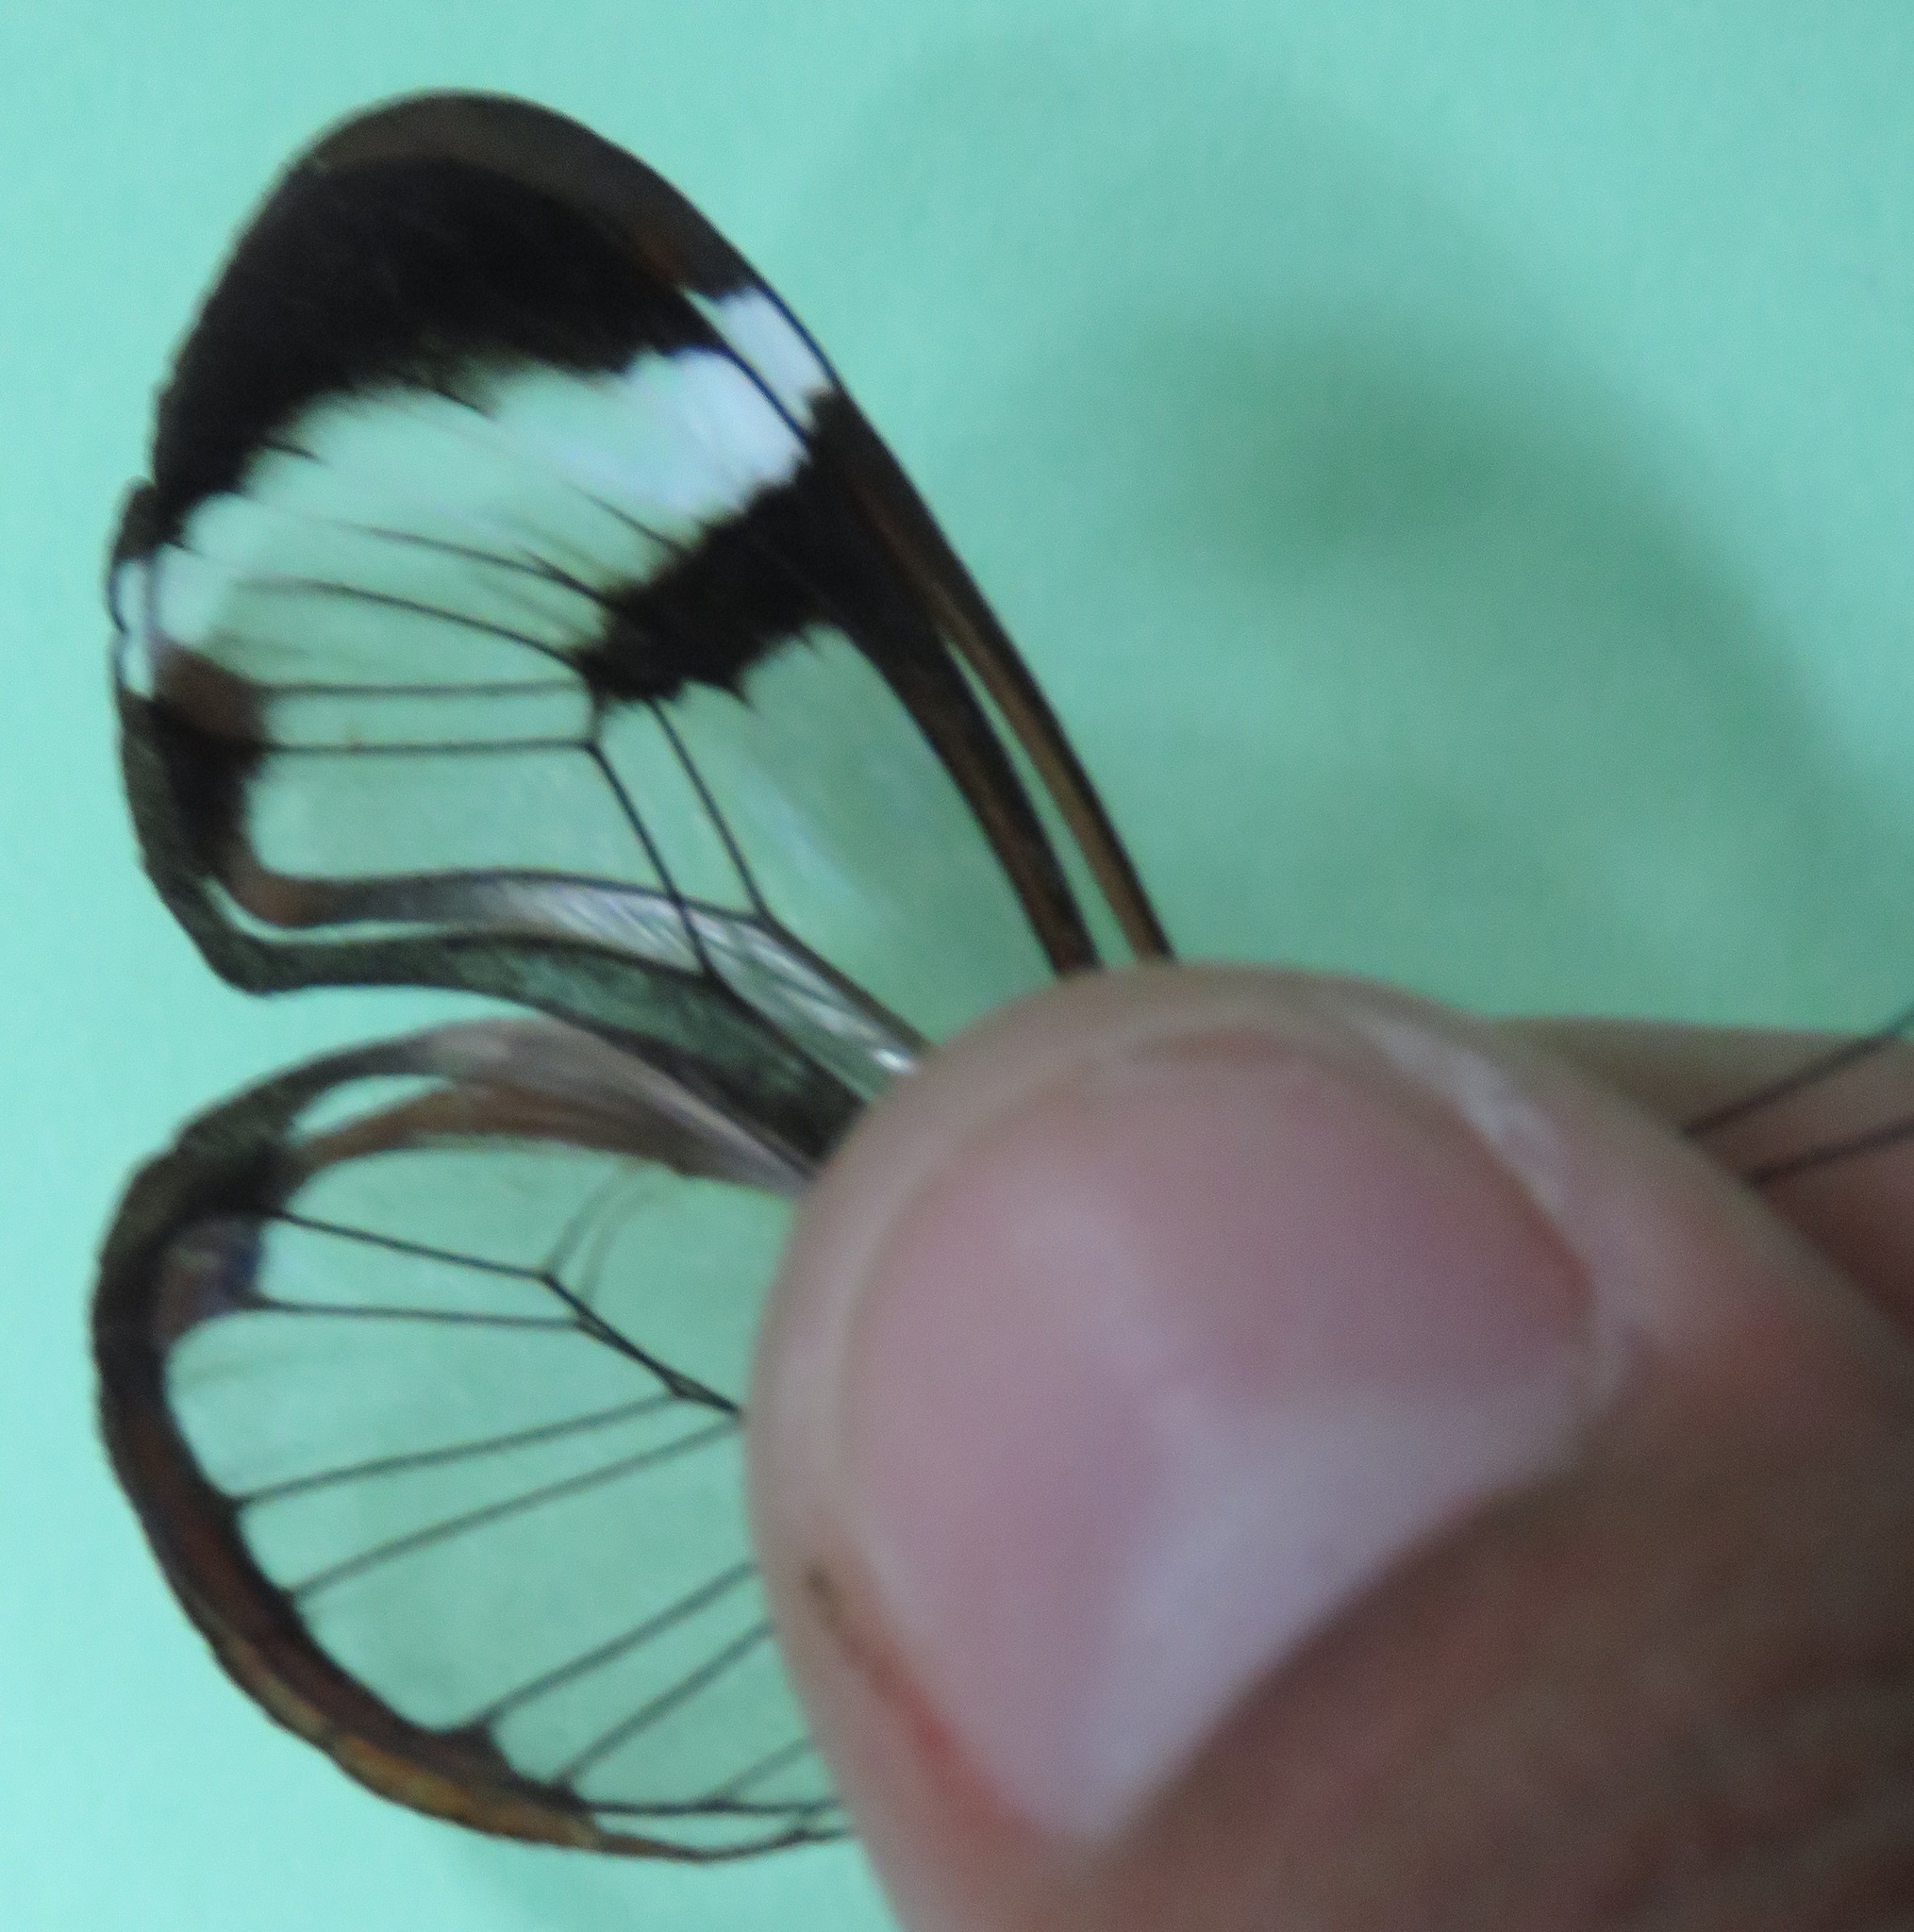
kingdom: Animalia
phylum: Arthropoda
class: Insecta
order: Lepidoptera
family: Nymphalidae
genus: Greta
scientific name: Greta morgane
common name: Thick-tipped greta
